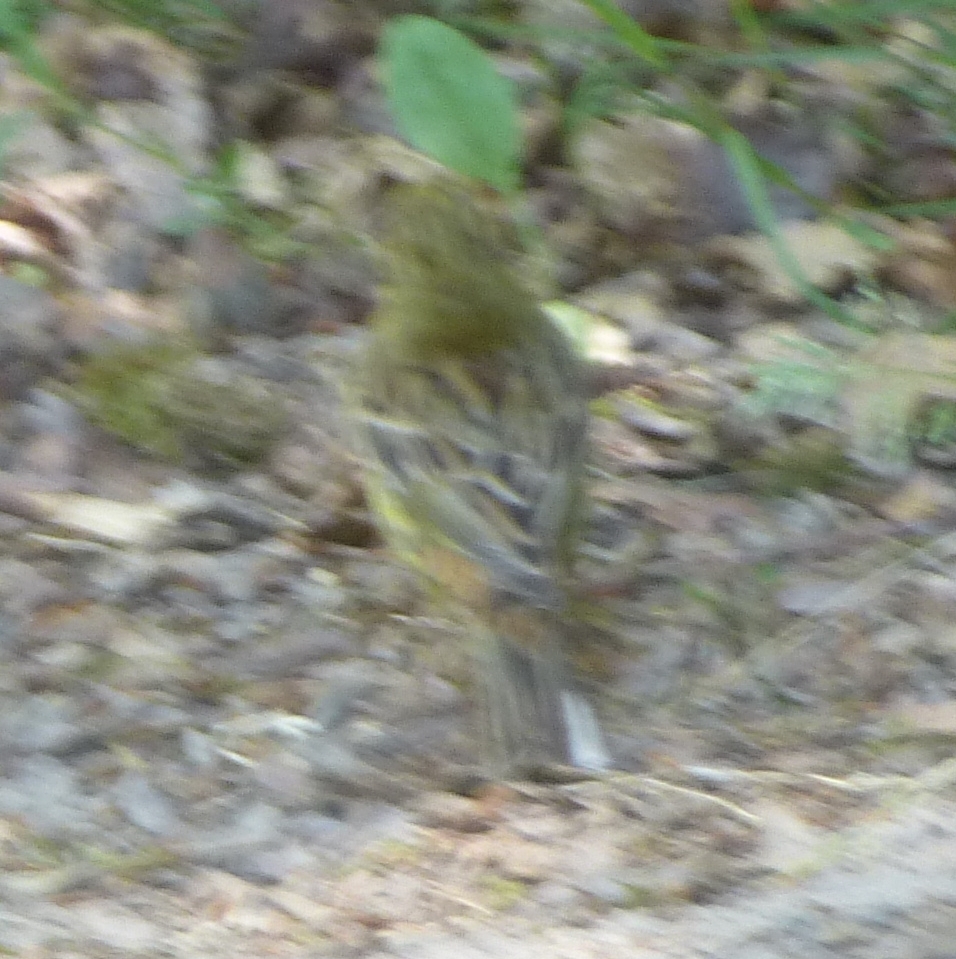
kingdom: Animalia
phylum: Chordata
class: Aves
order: Passeriformes
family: Emberizidae
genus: Emberiza
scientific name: Emberiza citrinella
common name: Yellowhammer
